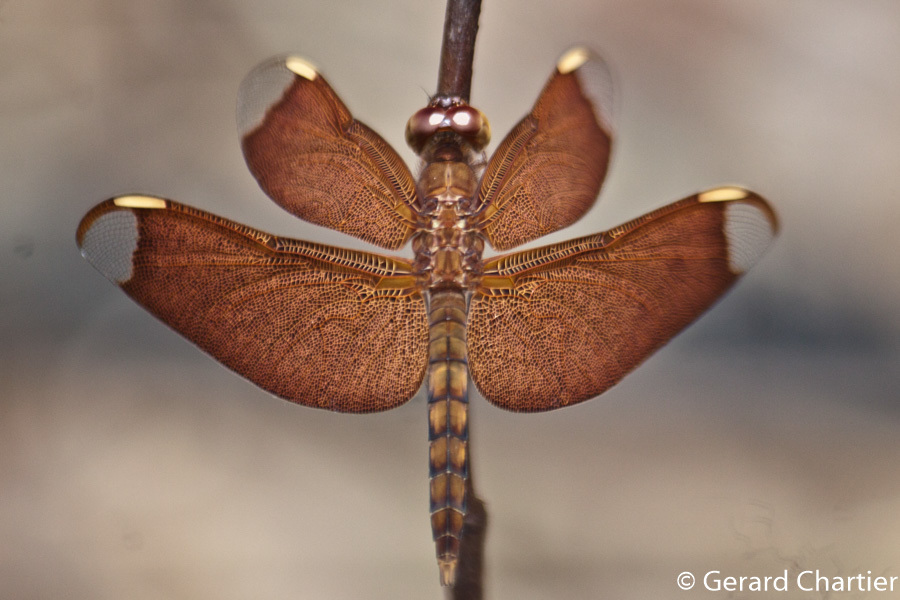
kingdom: Animalia
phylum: Arthropoda
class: Insecta
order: Odonata
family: Libellulidae
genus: Neurothemis
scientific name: Neurothemis fulvia
